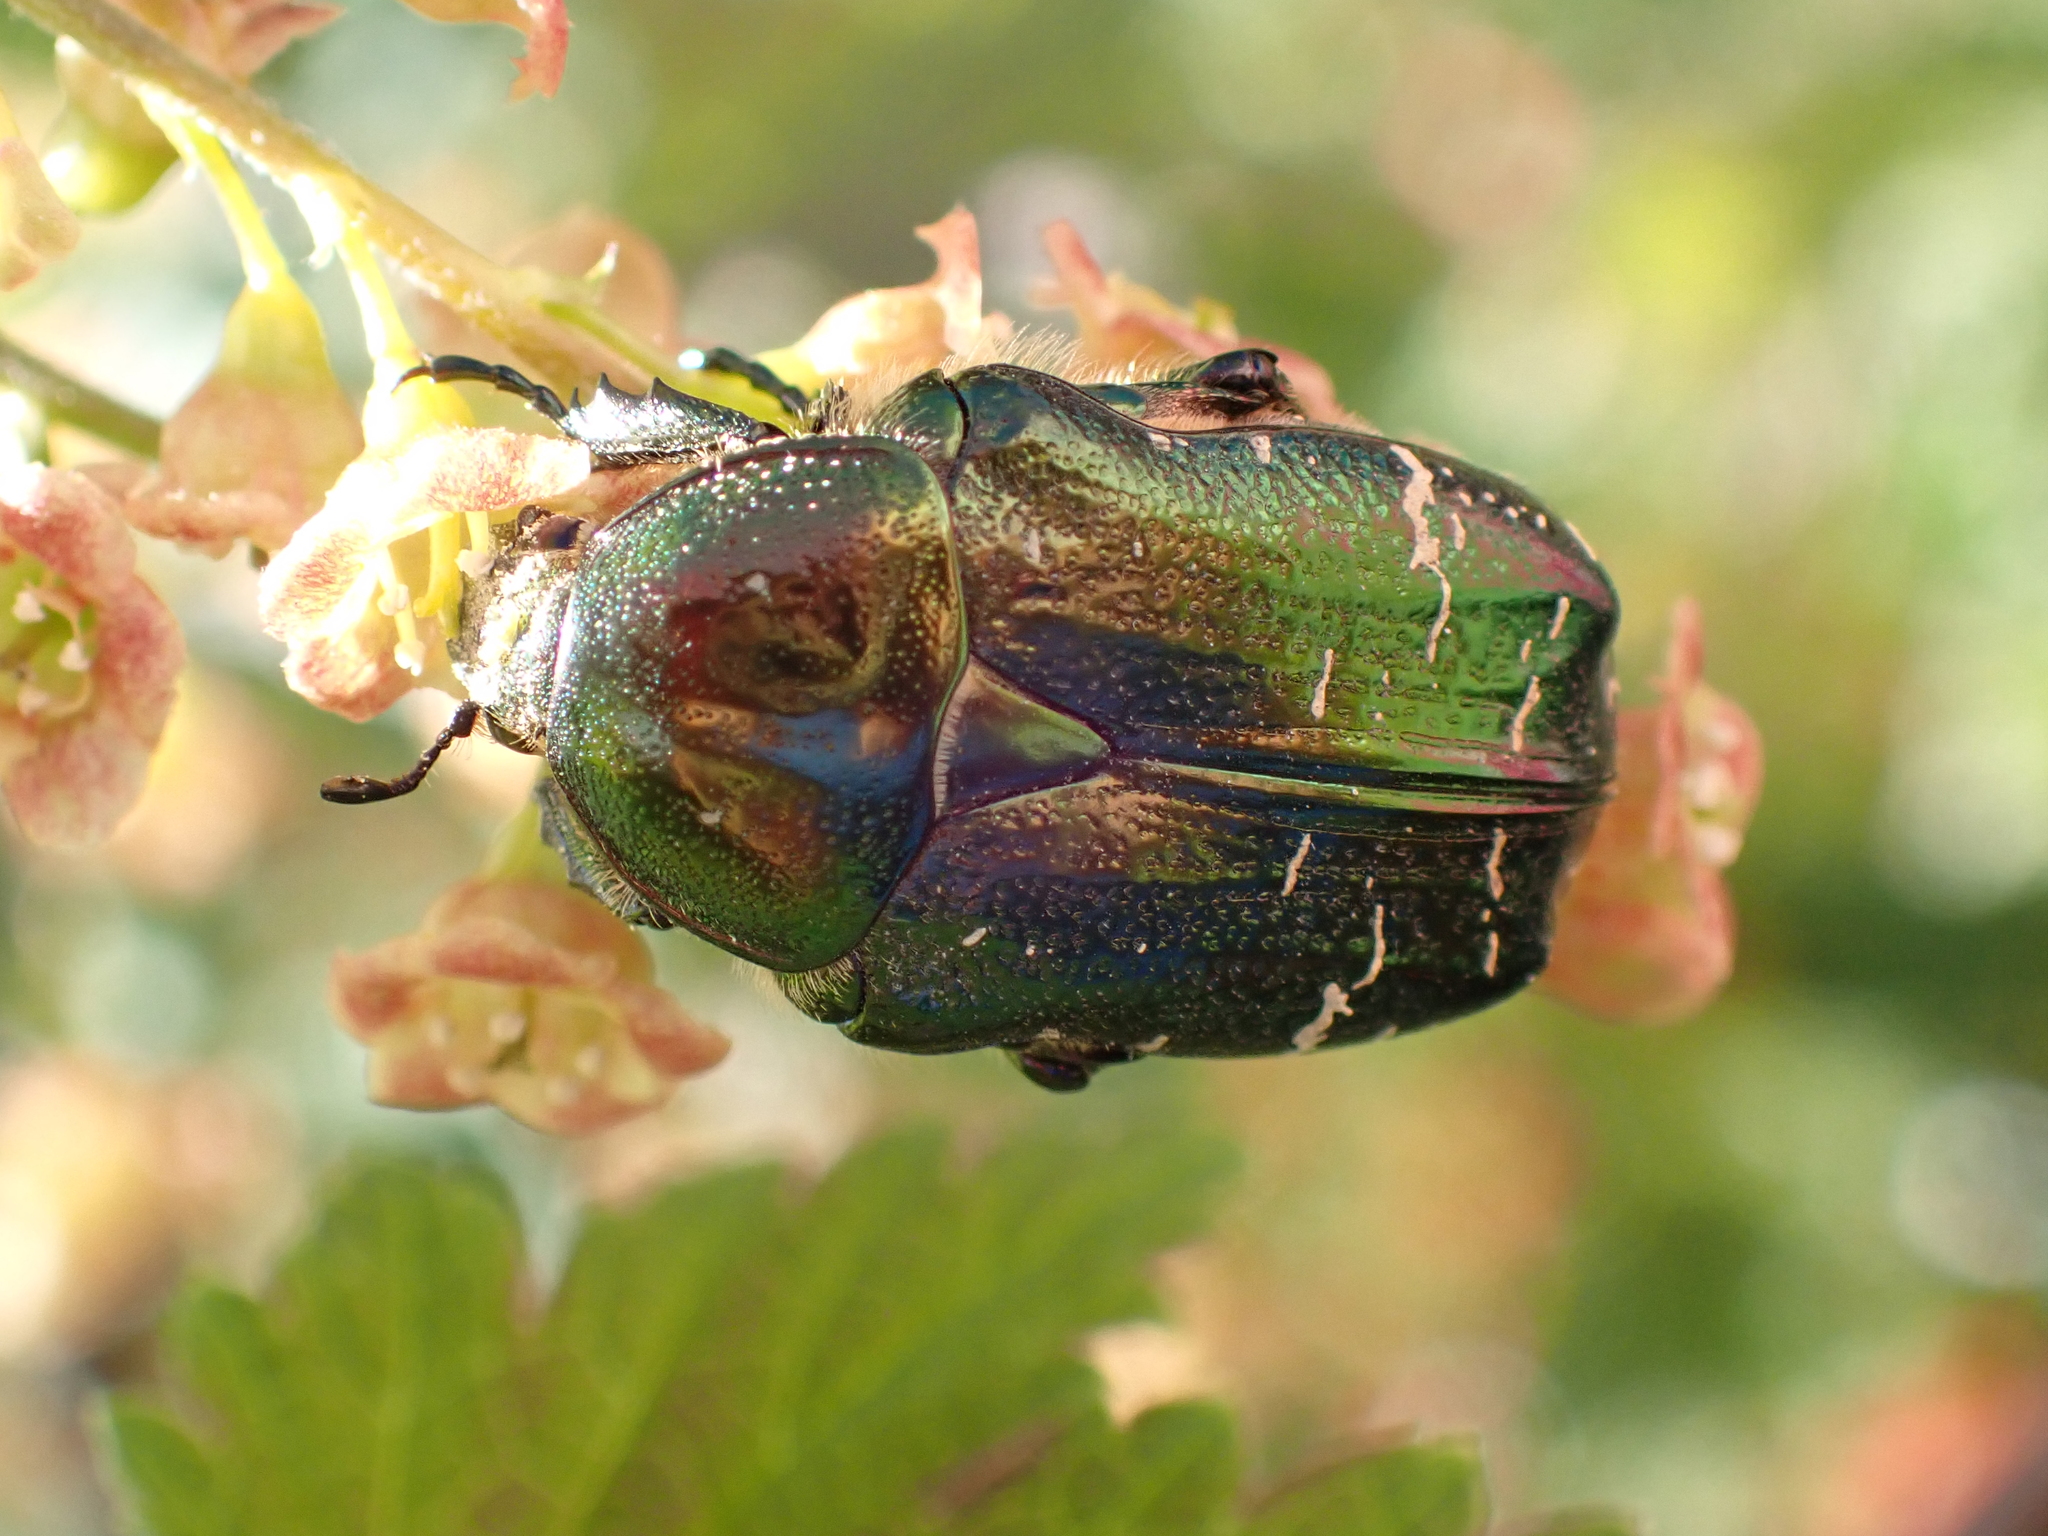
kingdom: Animalia
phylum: Arthropoda
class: Insecta
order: Coleoptera
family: Scarabaeidae
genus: Cetonia
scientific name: Cetonia aurata
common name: Rose chafer
